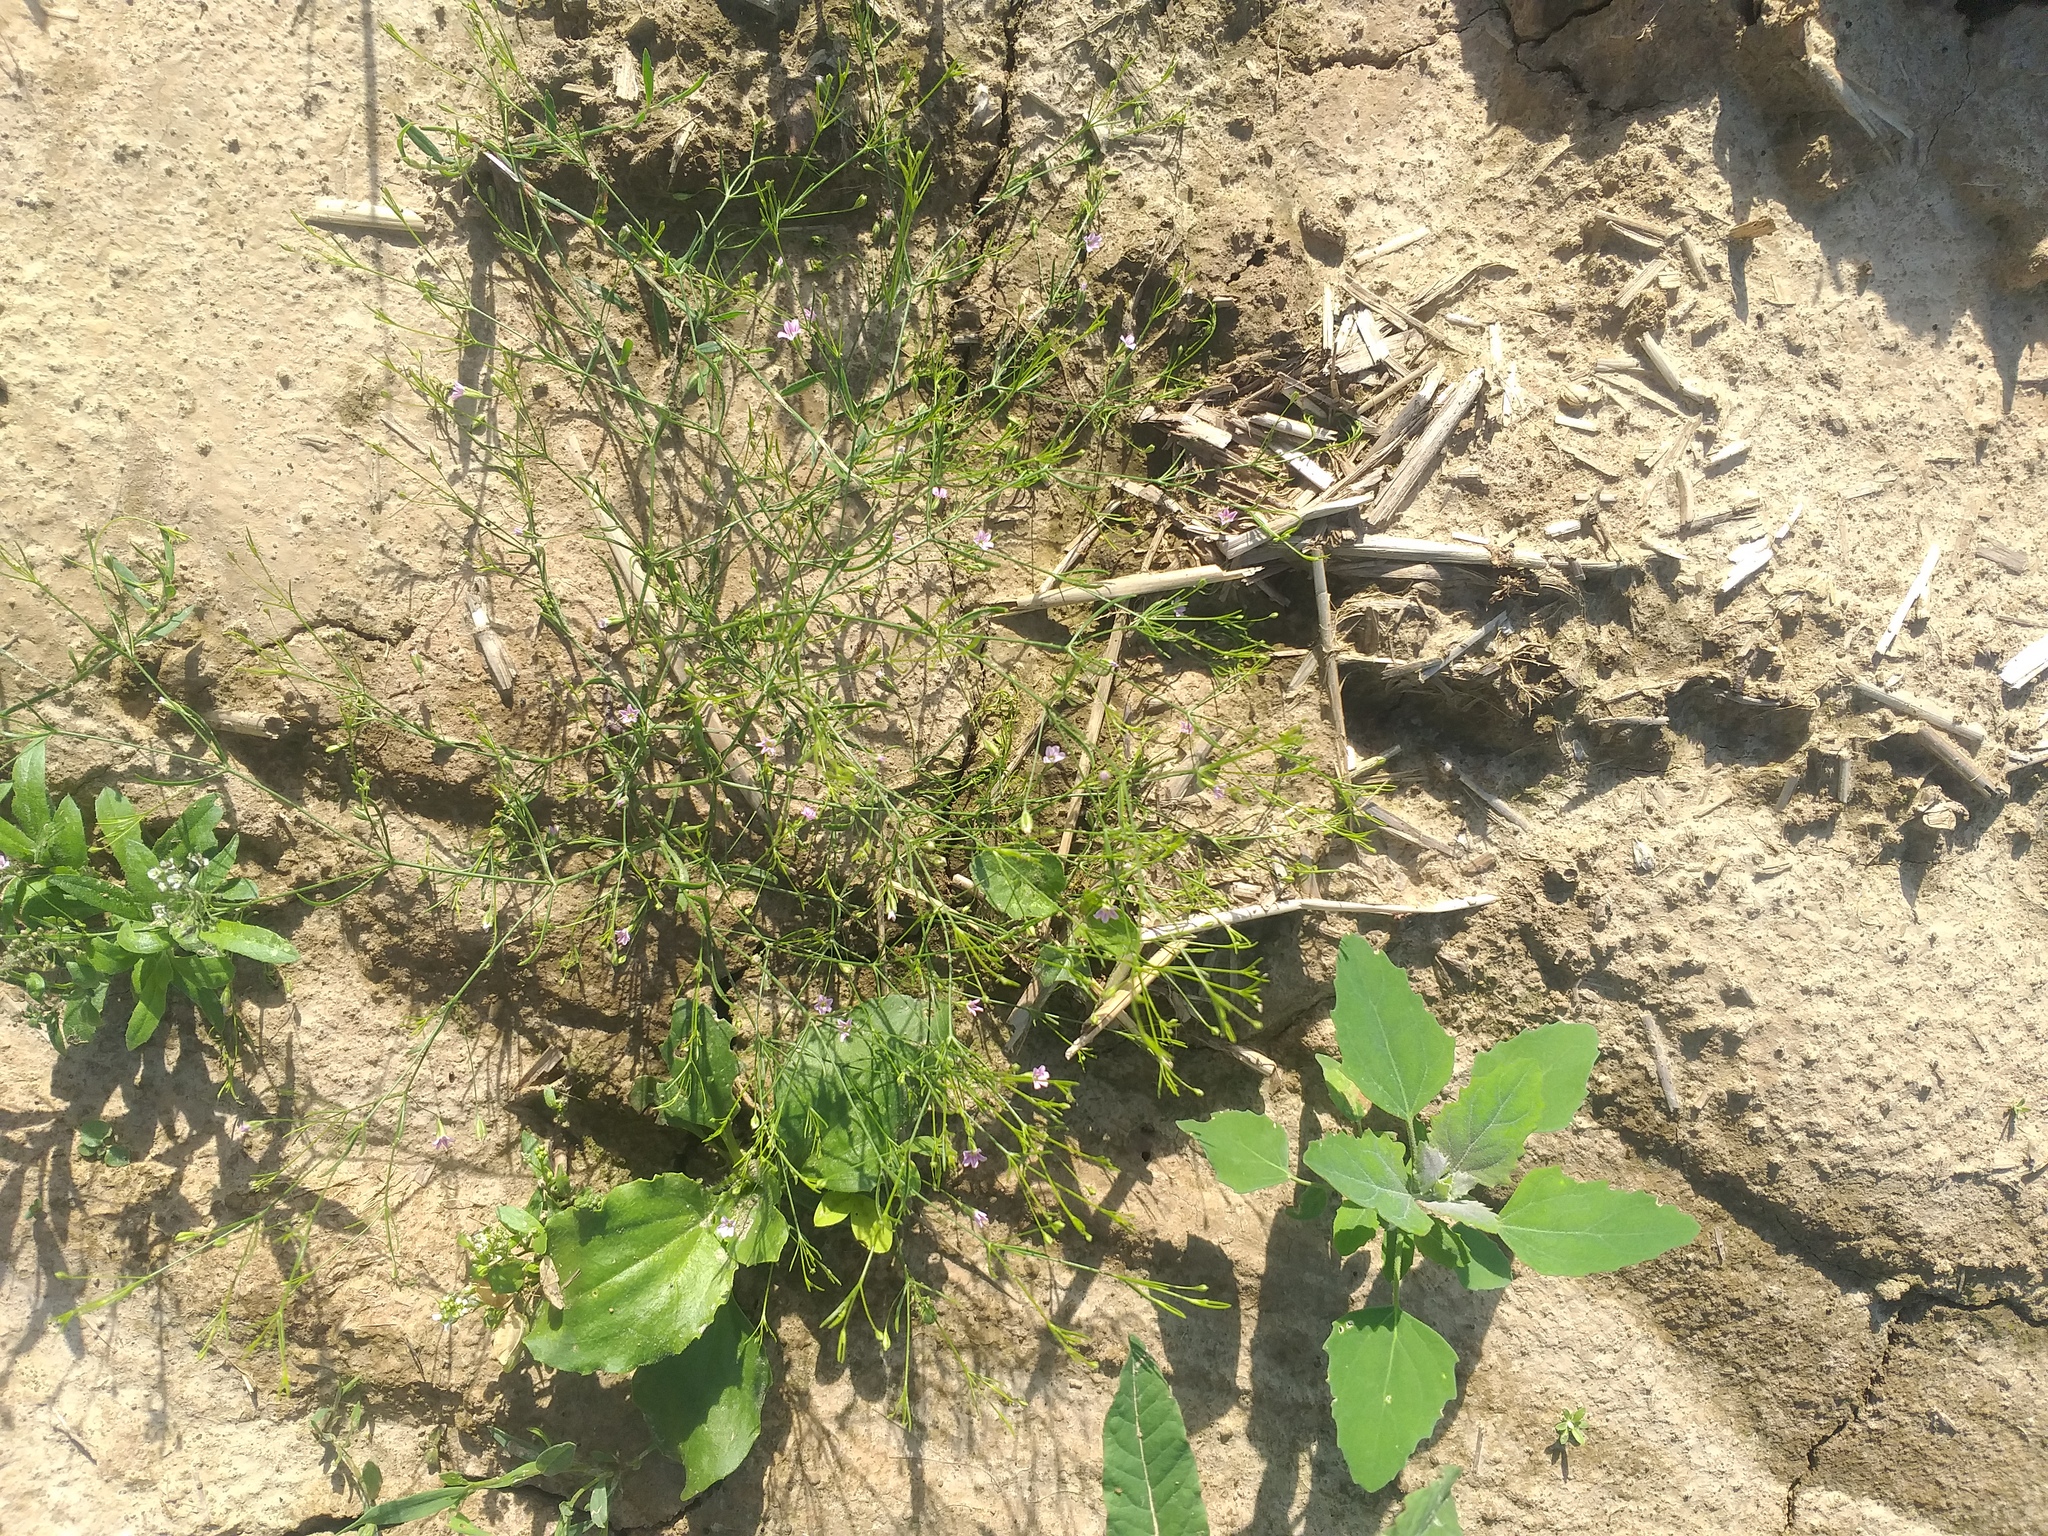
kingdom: Plantae
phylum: Tracheophyta
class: Magnoliopsida
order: Caryophyllales
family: Caryophyllaceae
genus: Psammophiliella
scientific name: Psammophiliella muralis
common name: Cushion baby's-breath
